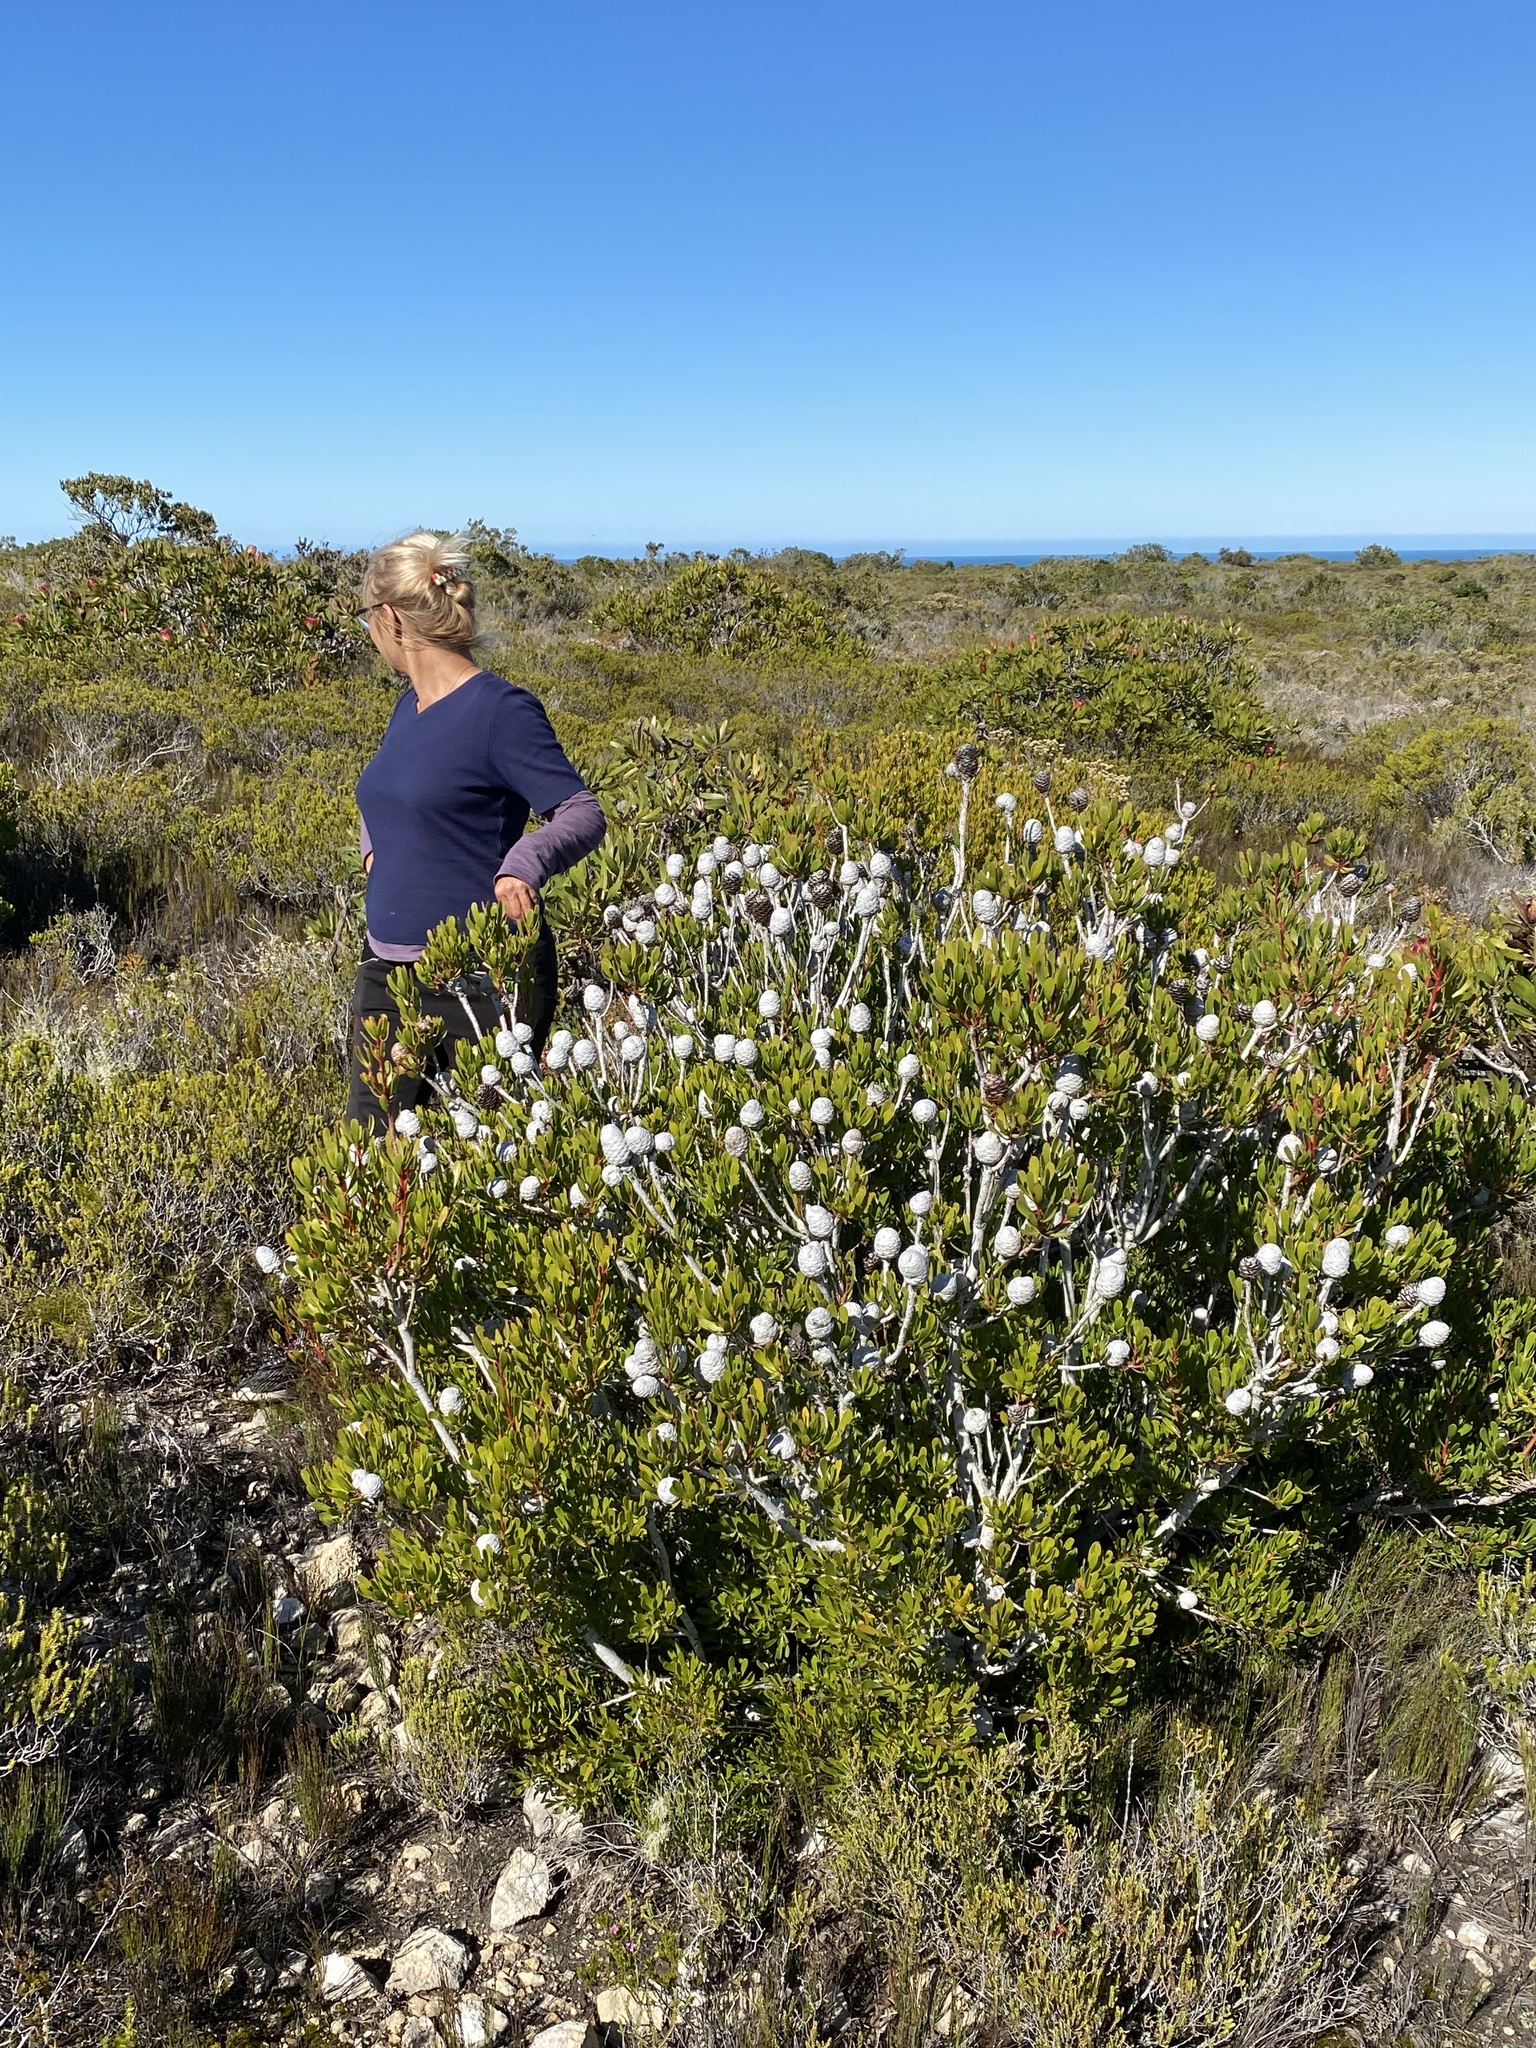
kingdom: Plantae
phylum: Tracheophyta
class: Magnoliopsida
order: Proteales
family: Proteaceae
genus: Leucadendron
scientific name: Leucadendron muirii
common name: Silver-ball conebush
